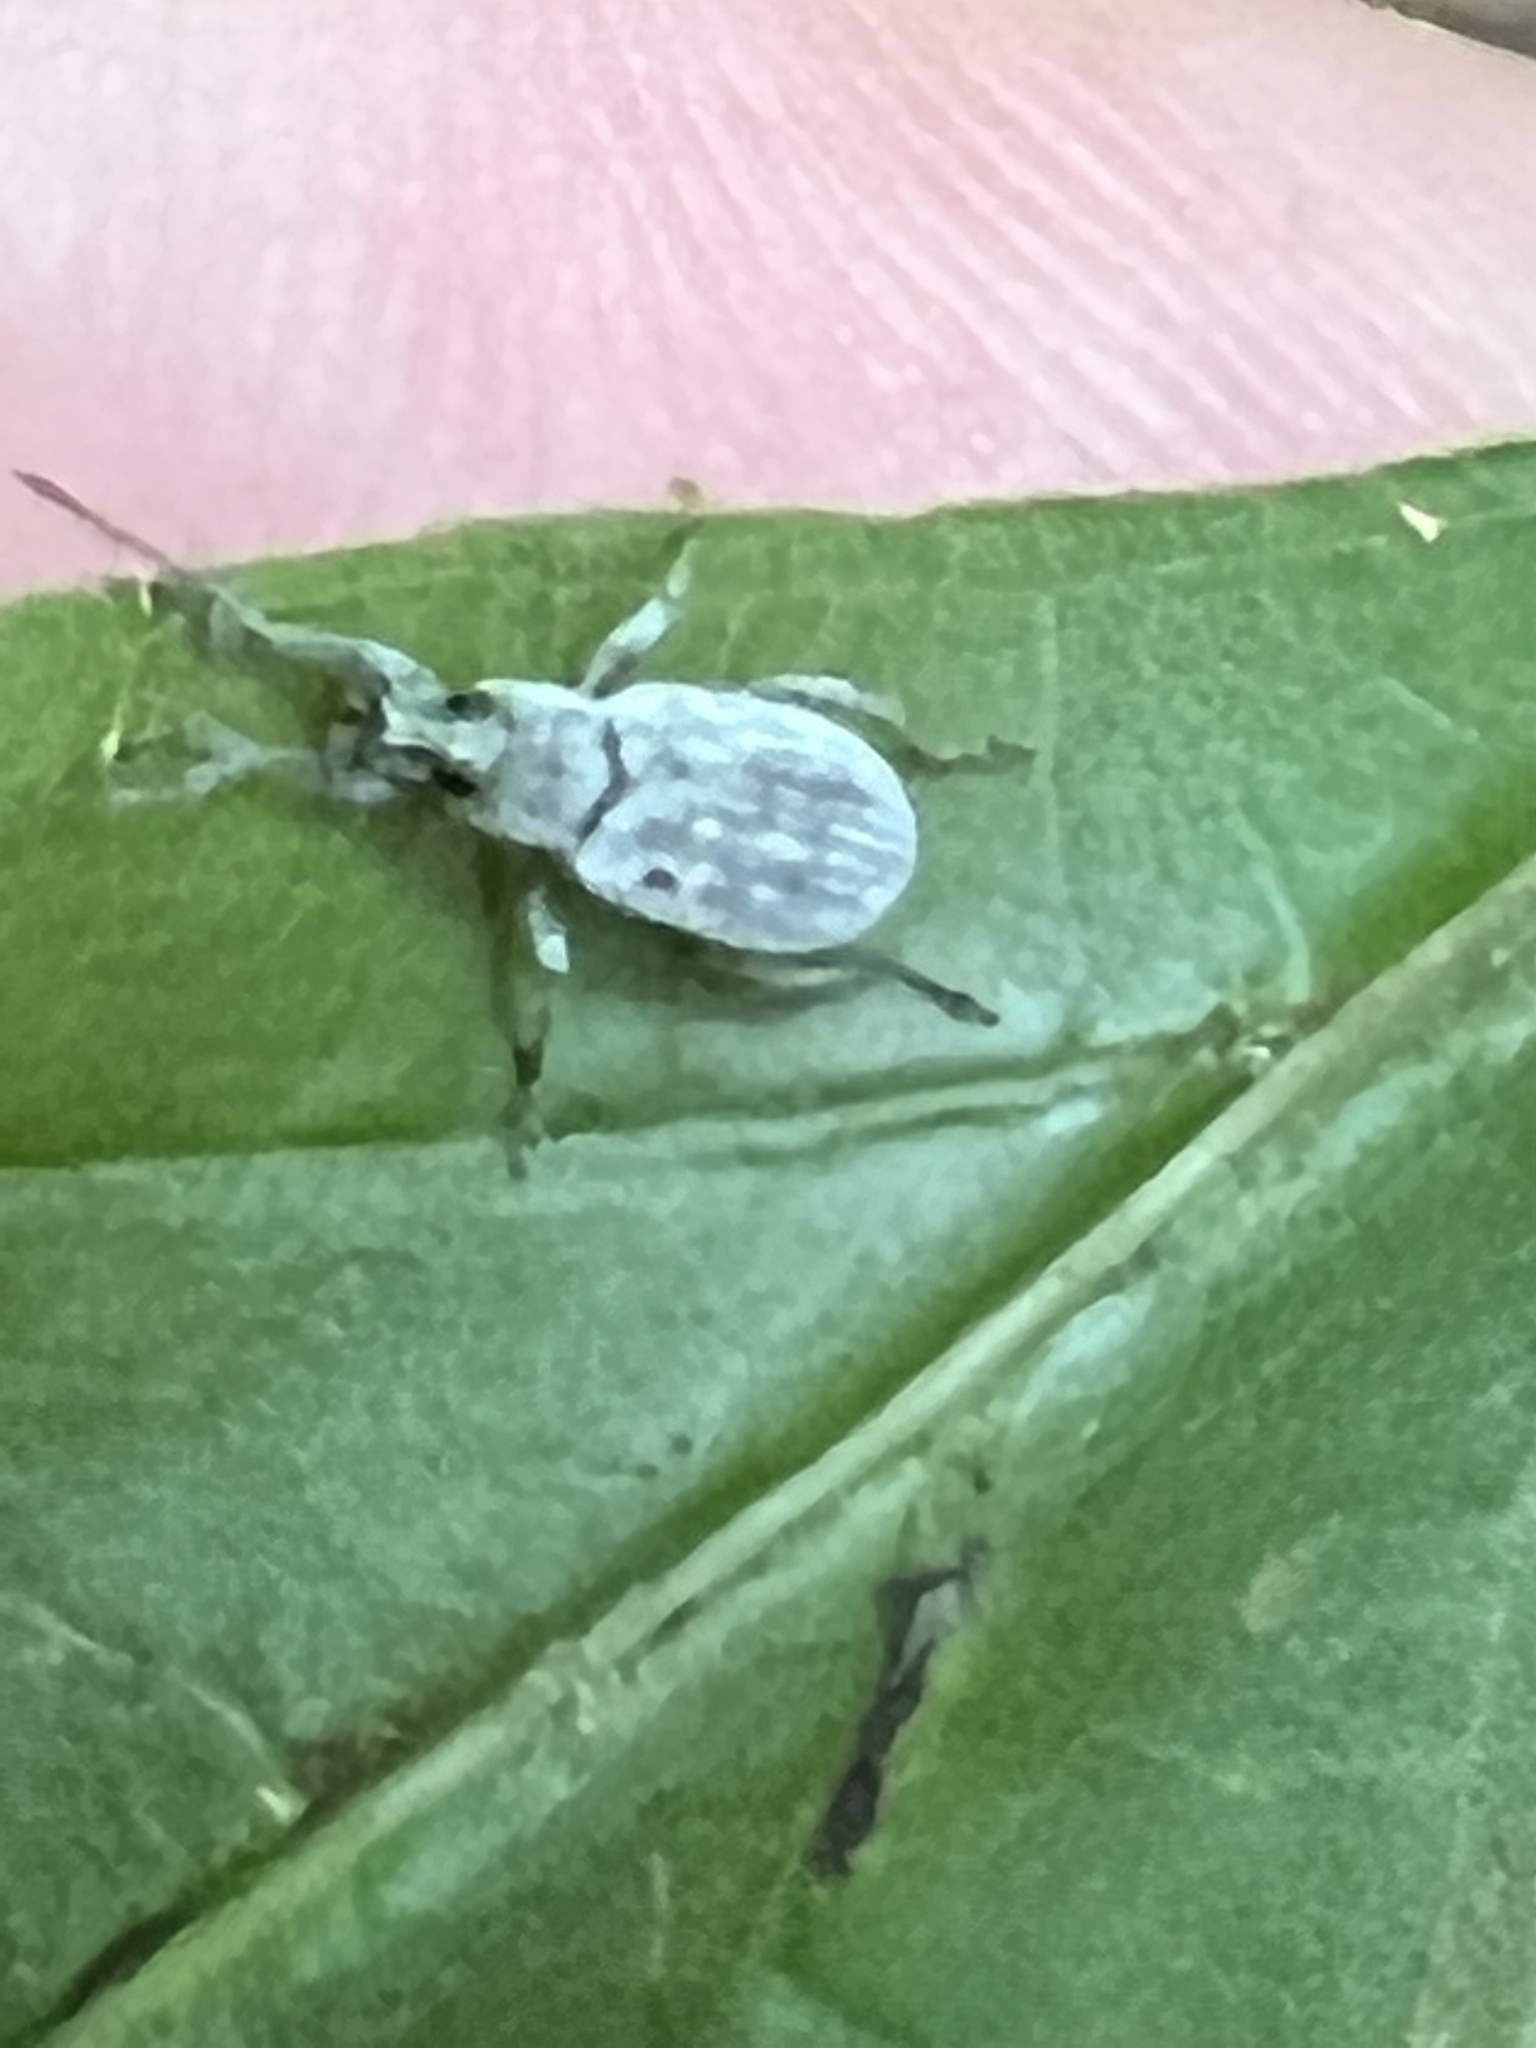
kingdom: Animalia
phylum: Arthropoda
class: Insecta
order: Coleoptera
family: Curculionidae
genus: Cyrtepistomus
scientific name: Cyrtepistomus castaneus
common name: Weevil
